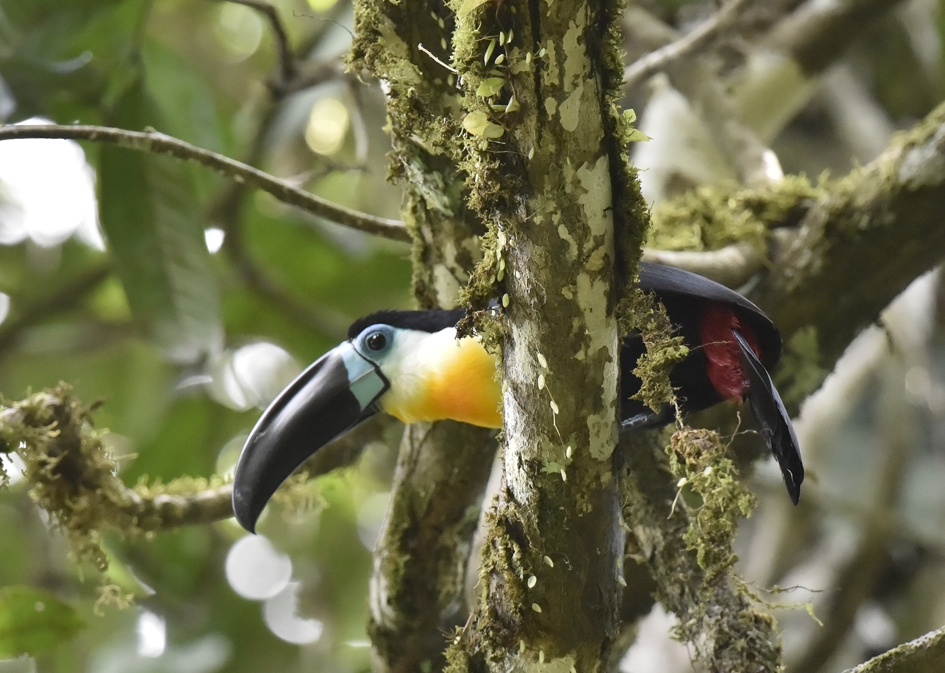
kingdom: Animalia
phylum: Chordata
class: Aves
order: Piciformes
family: Ramphastidae
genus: Ramphastos
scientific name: Ramphastos vitellinus
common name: Channel-billed toucan
